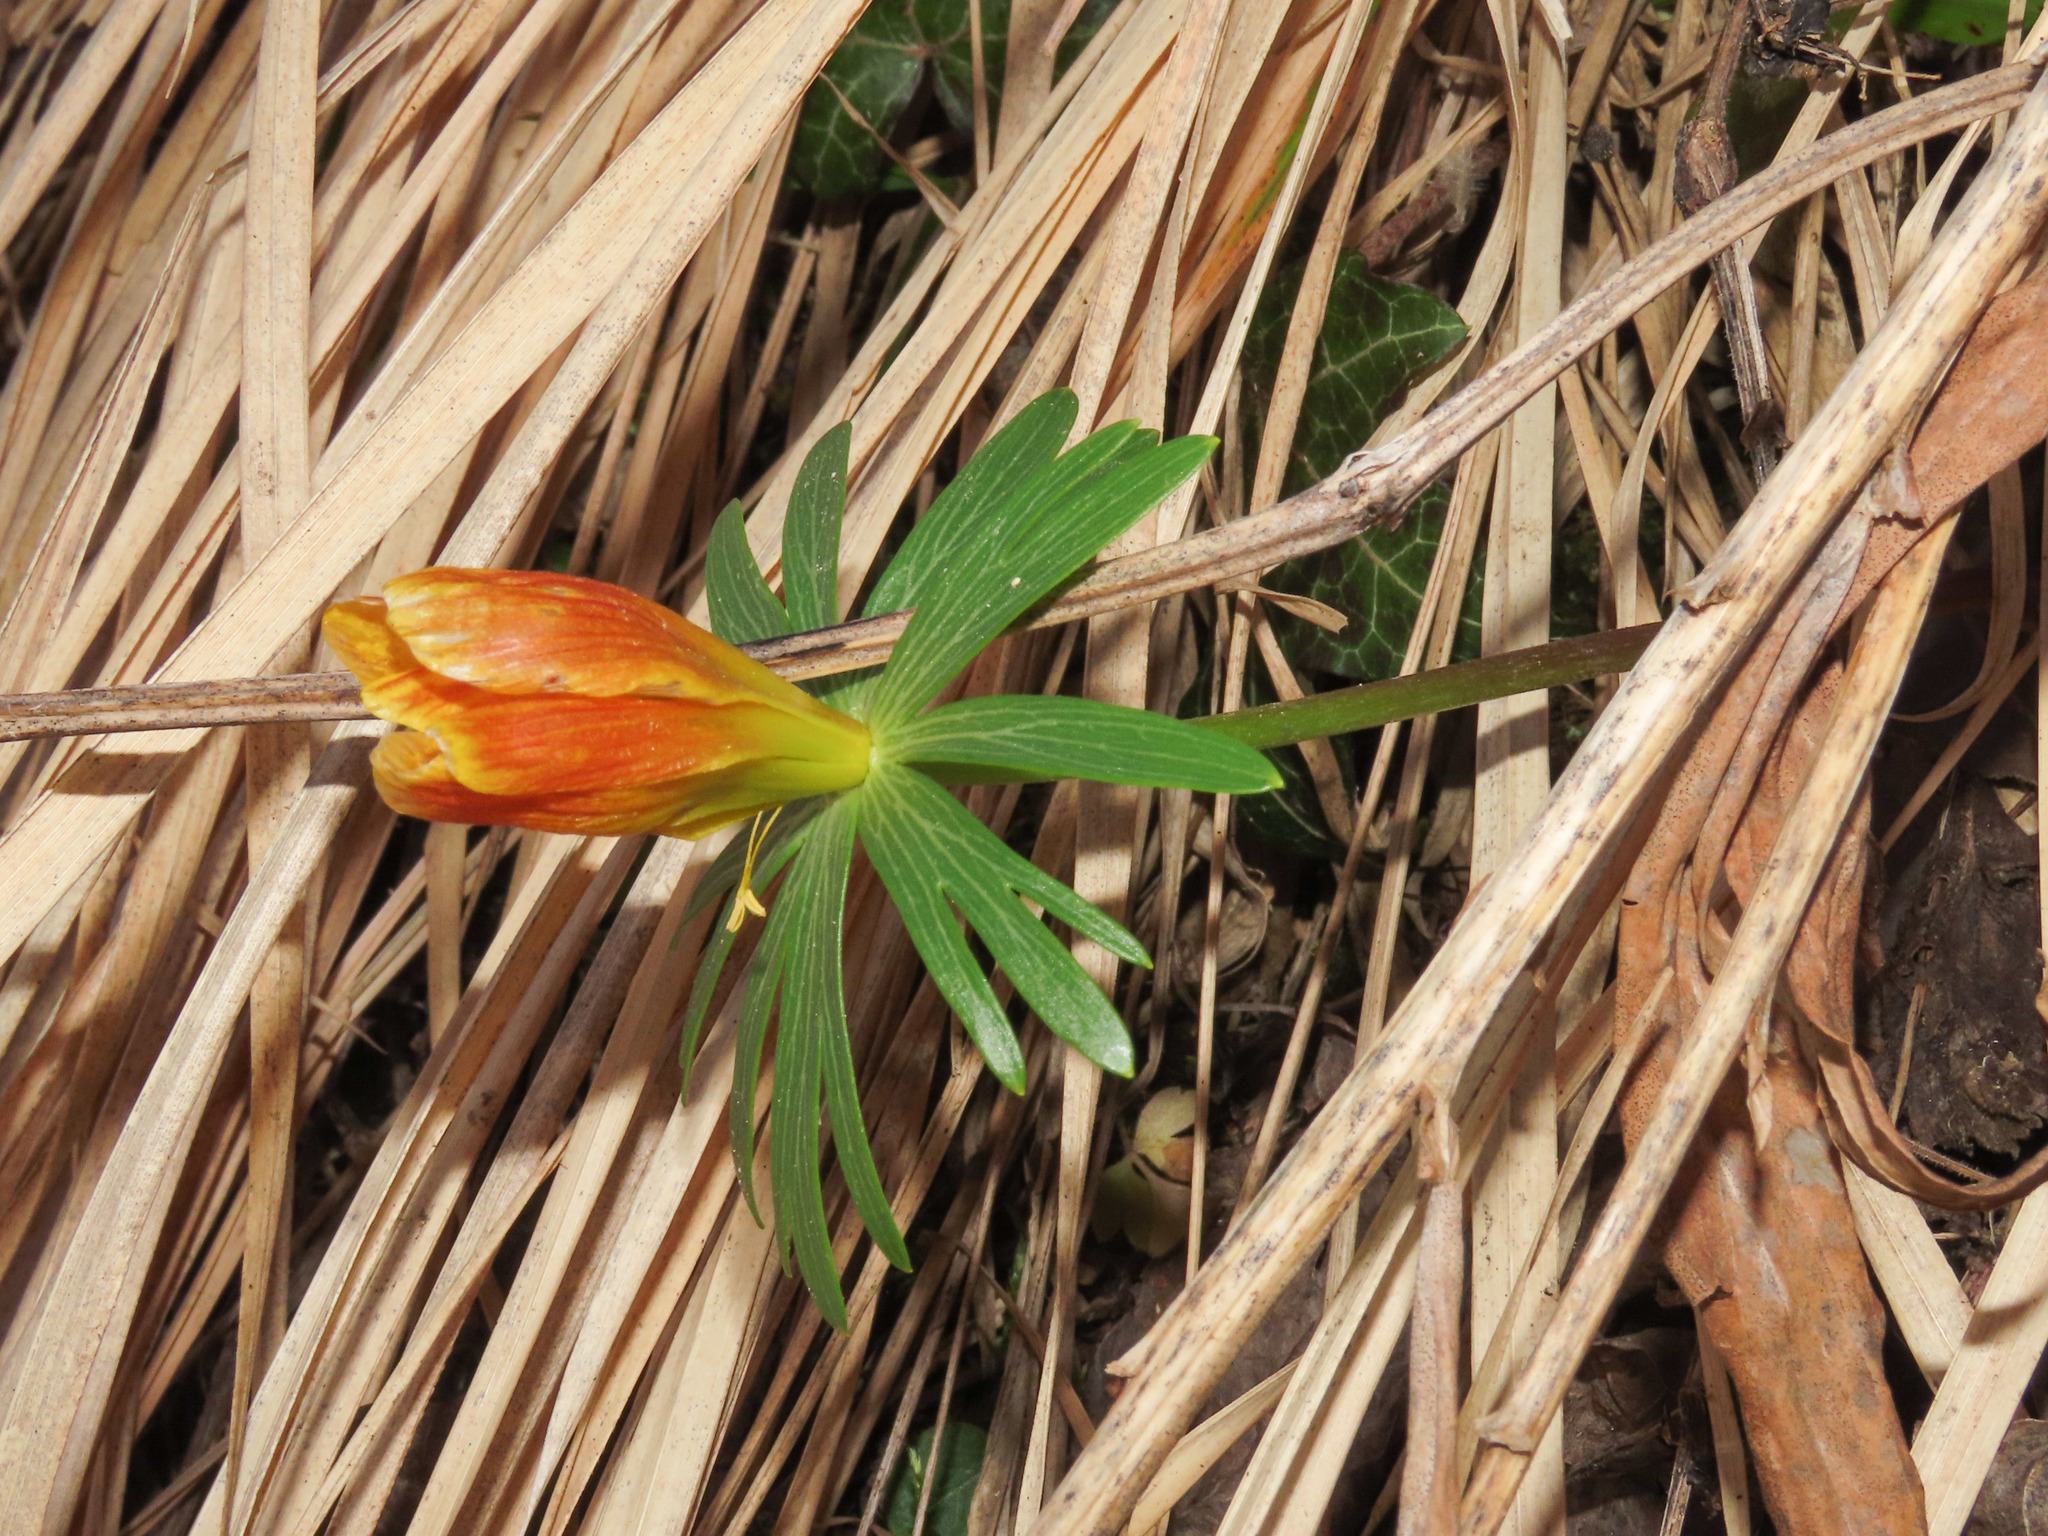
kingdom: Plantae
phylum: Tracheophyta
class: Magnoliopsida
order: Ranunculales
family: Ranunculaceae
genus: Eranthis
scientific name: Eranthis hyemalis
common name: Winter aconite
